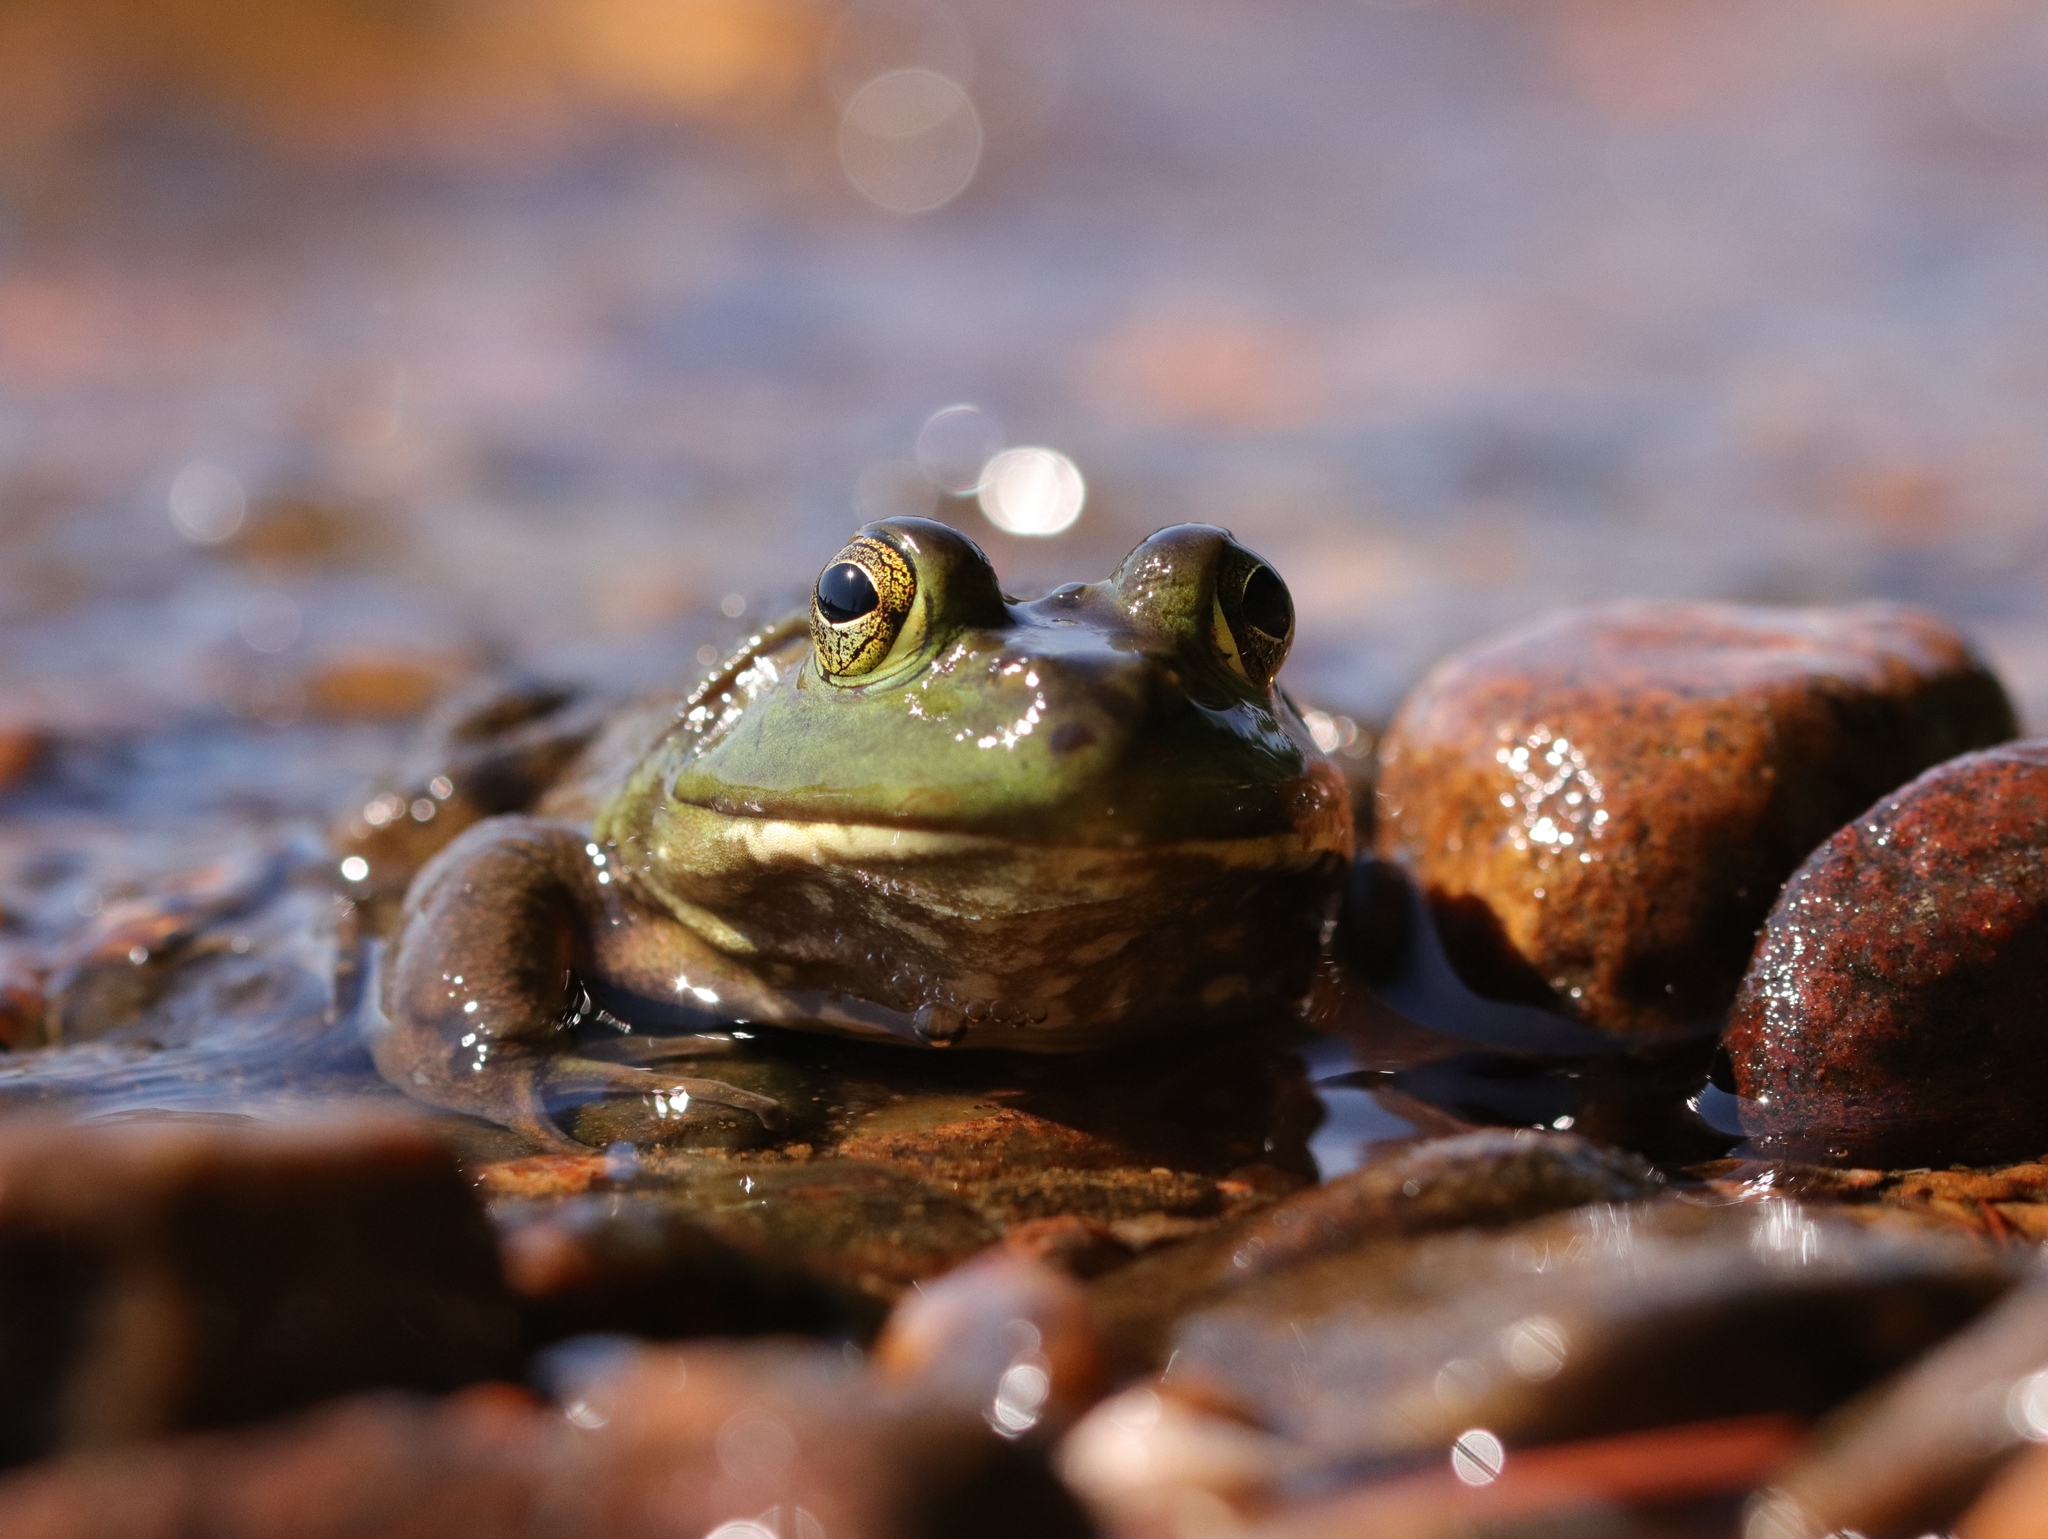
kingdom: Animalia
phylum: Chordata
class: Amphibia
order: Anura
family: Ranidae
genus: Lithobates
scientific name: Lithobates catesbeianus
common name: American bullfrog
